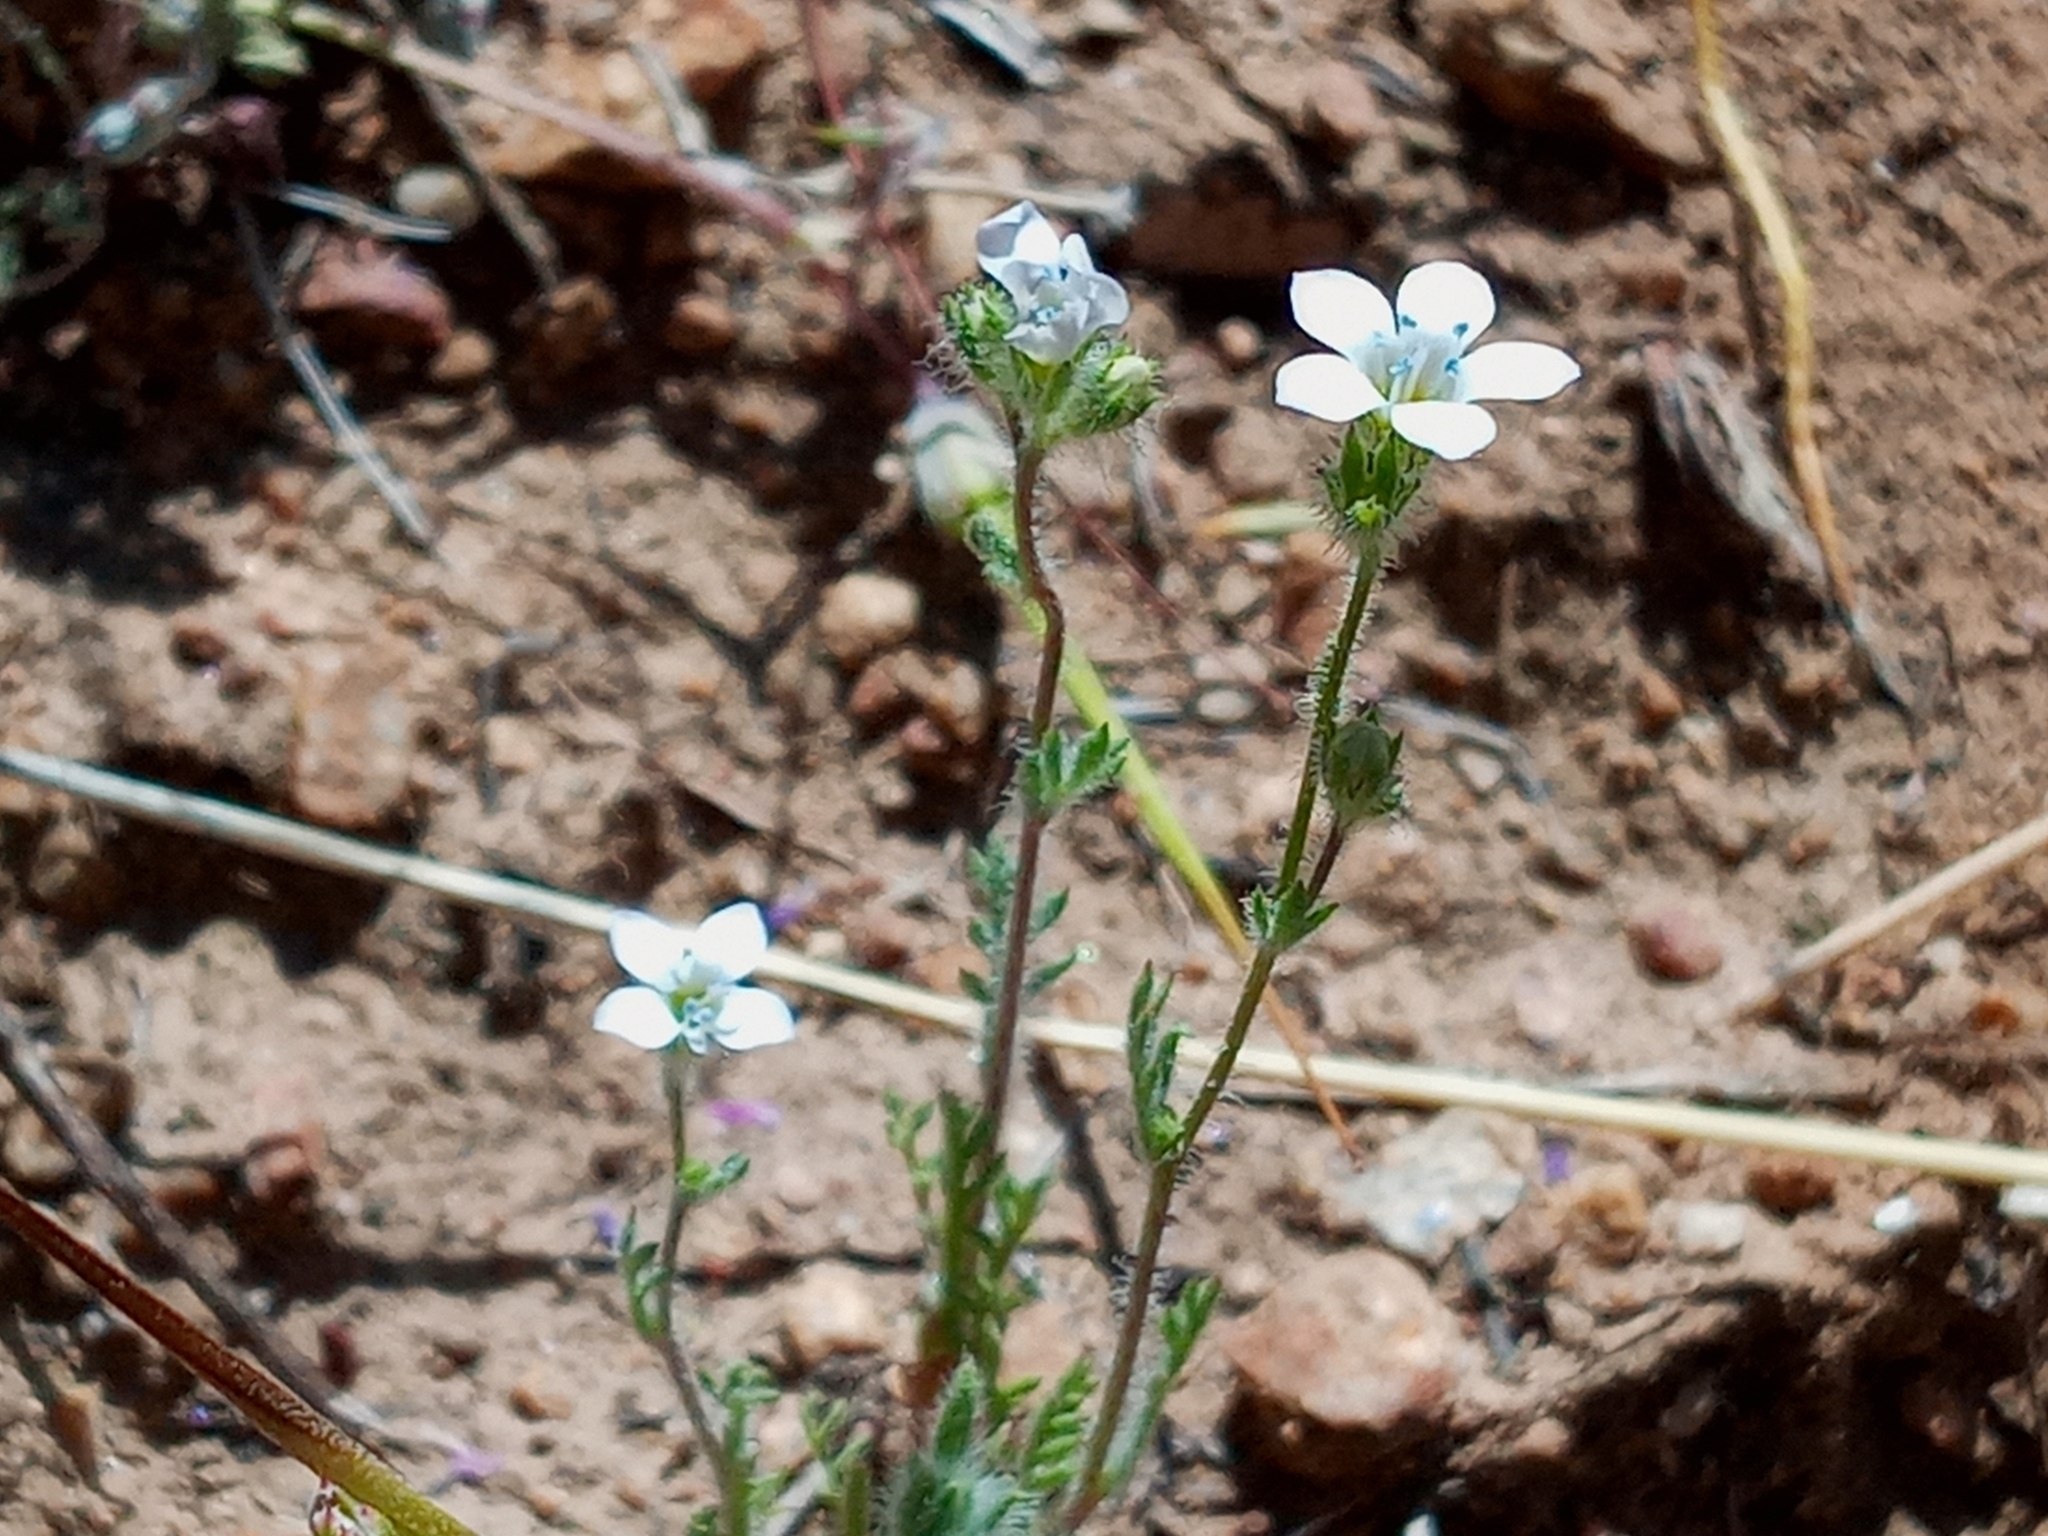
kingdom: Plantae
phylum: Tracheophyta
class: Magnoliopsida
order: Ericales
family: Polemoniaceae
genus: Gilia
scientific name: Gilia angelensis
